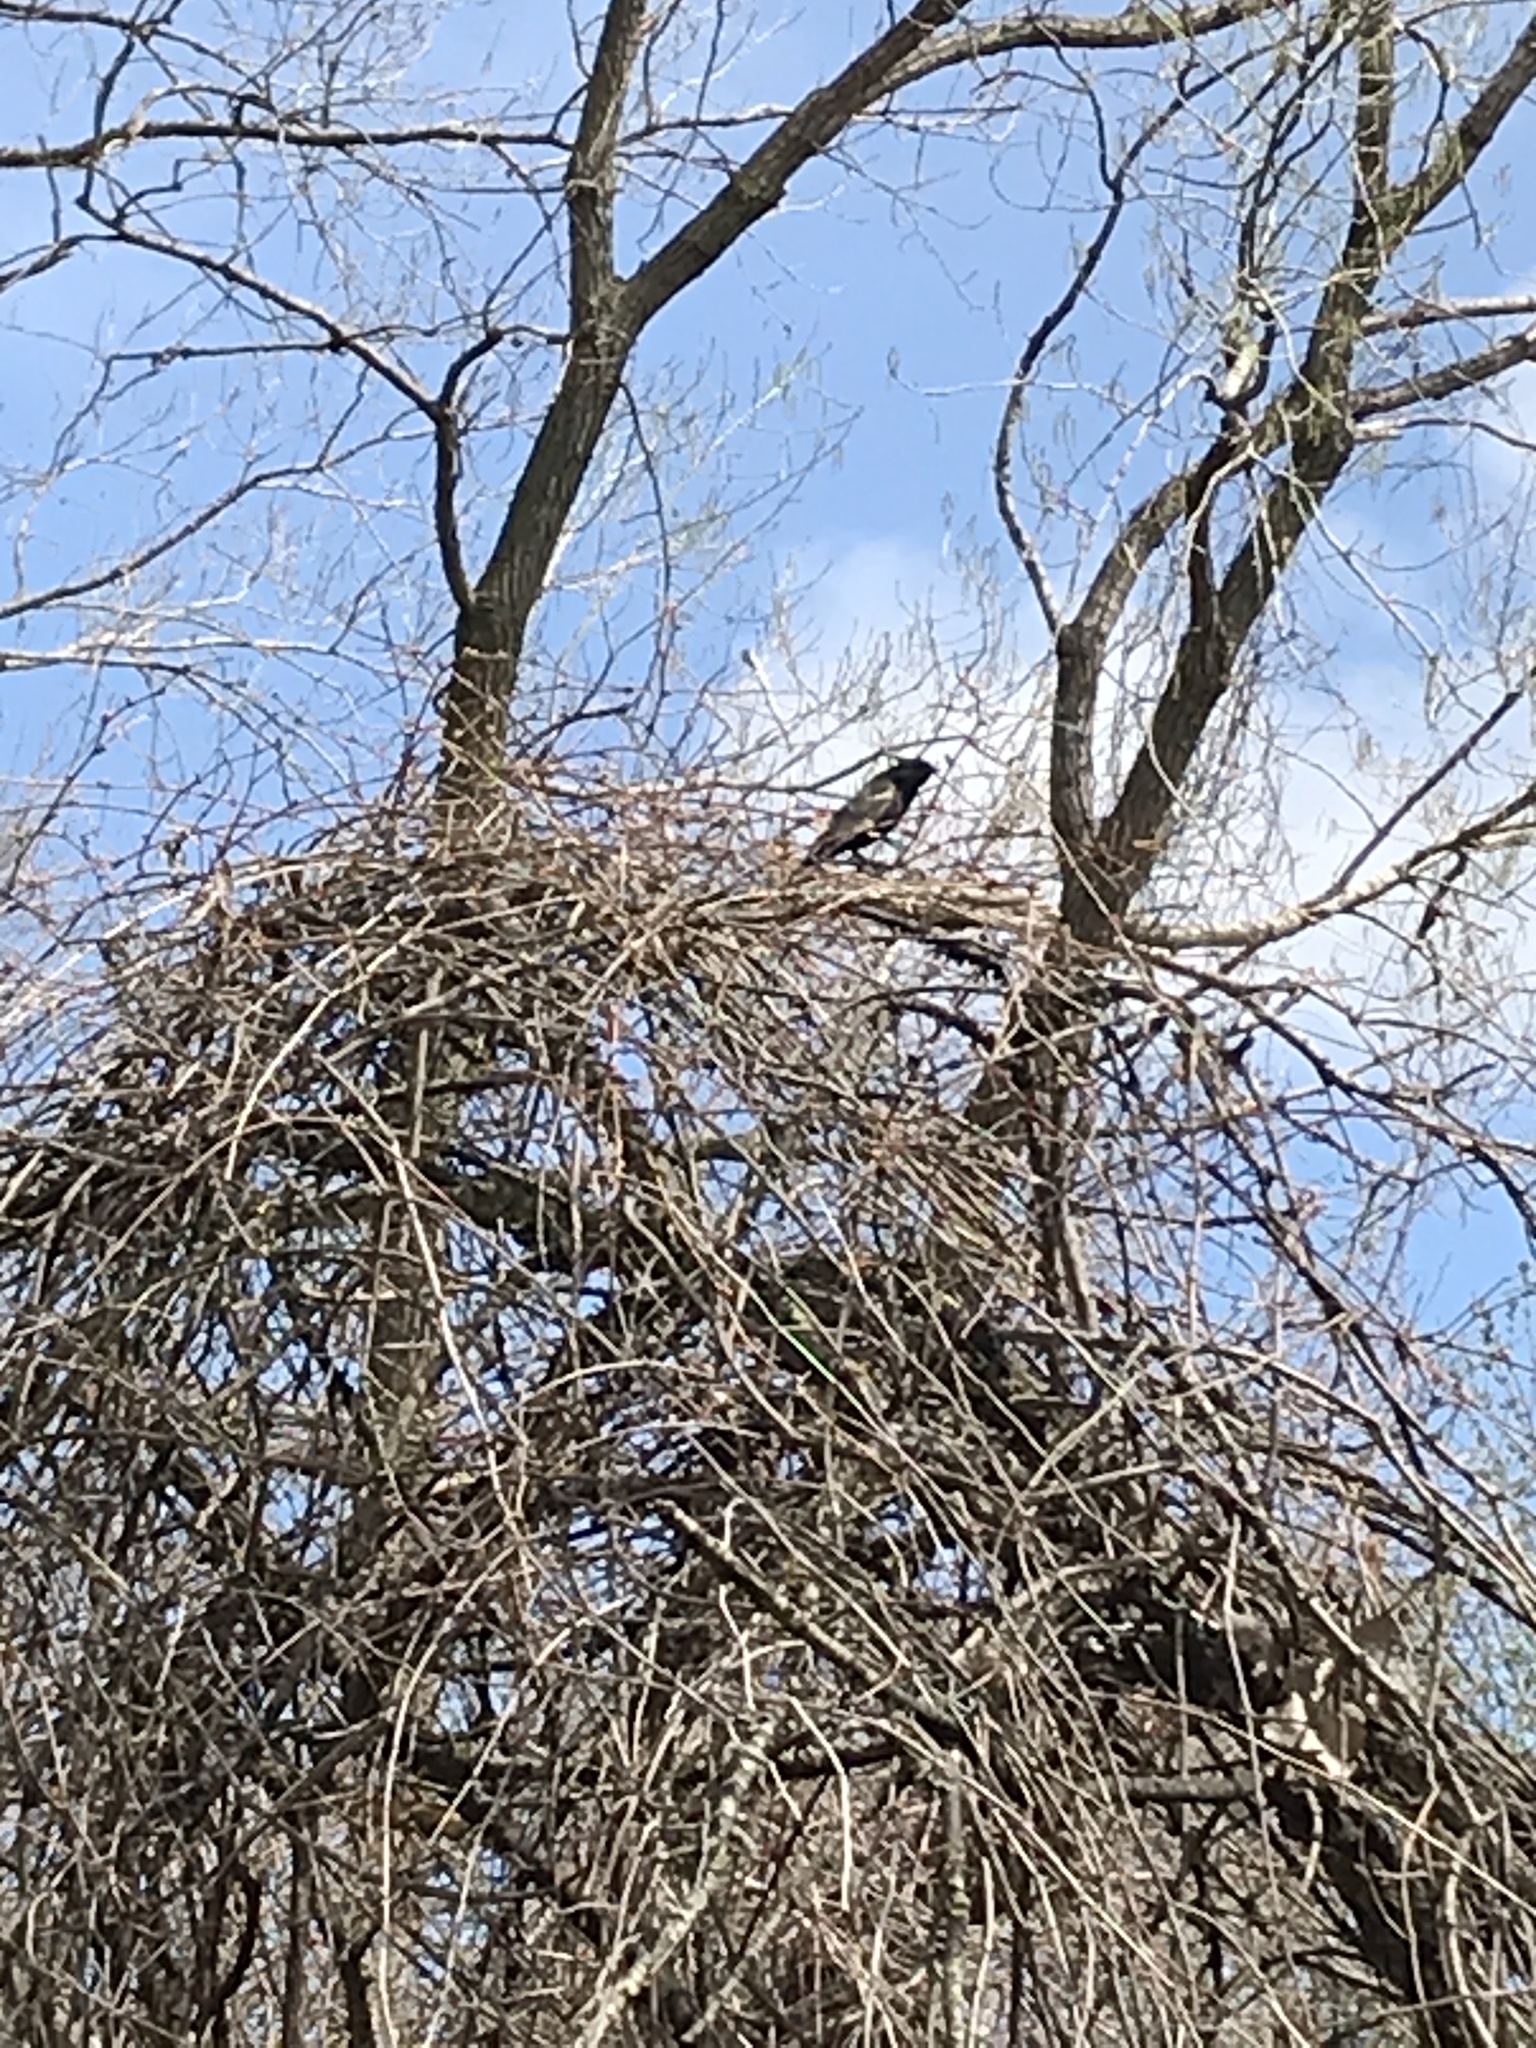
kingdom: Animalia
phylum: Chordata
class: Aves
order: Passeriformes
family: Icteridae
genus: Agelaius
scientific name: Agelaius phoeniceus
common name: Red-winged blackbird
